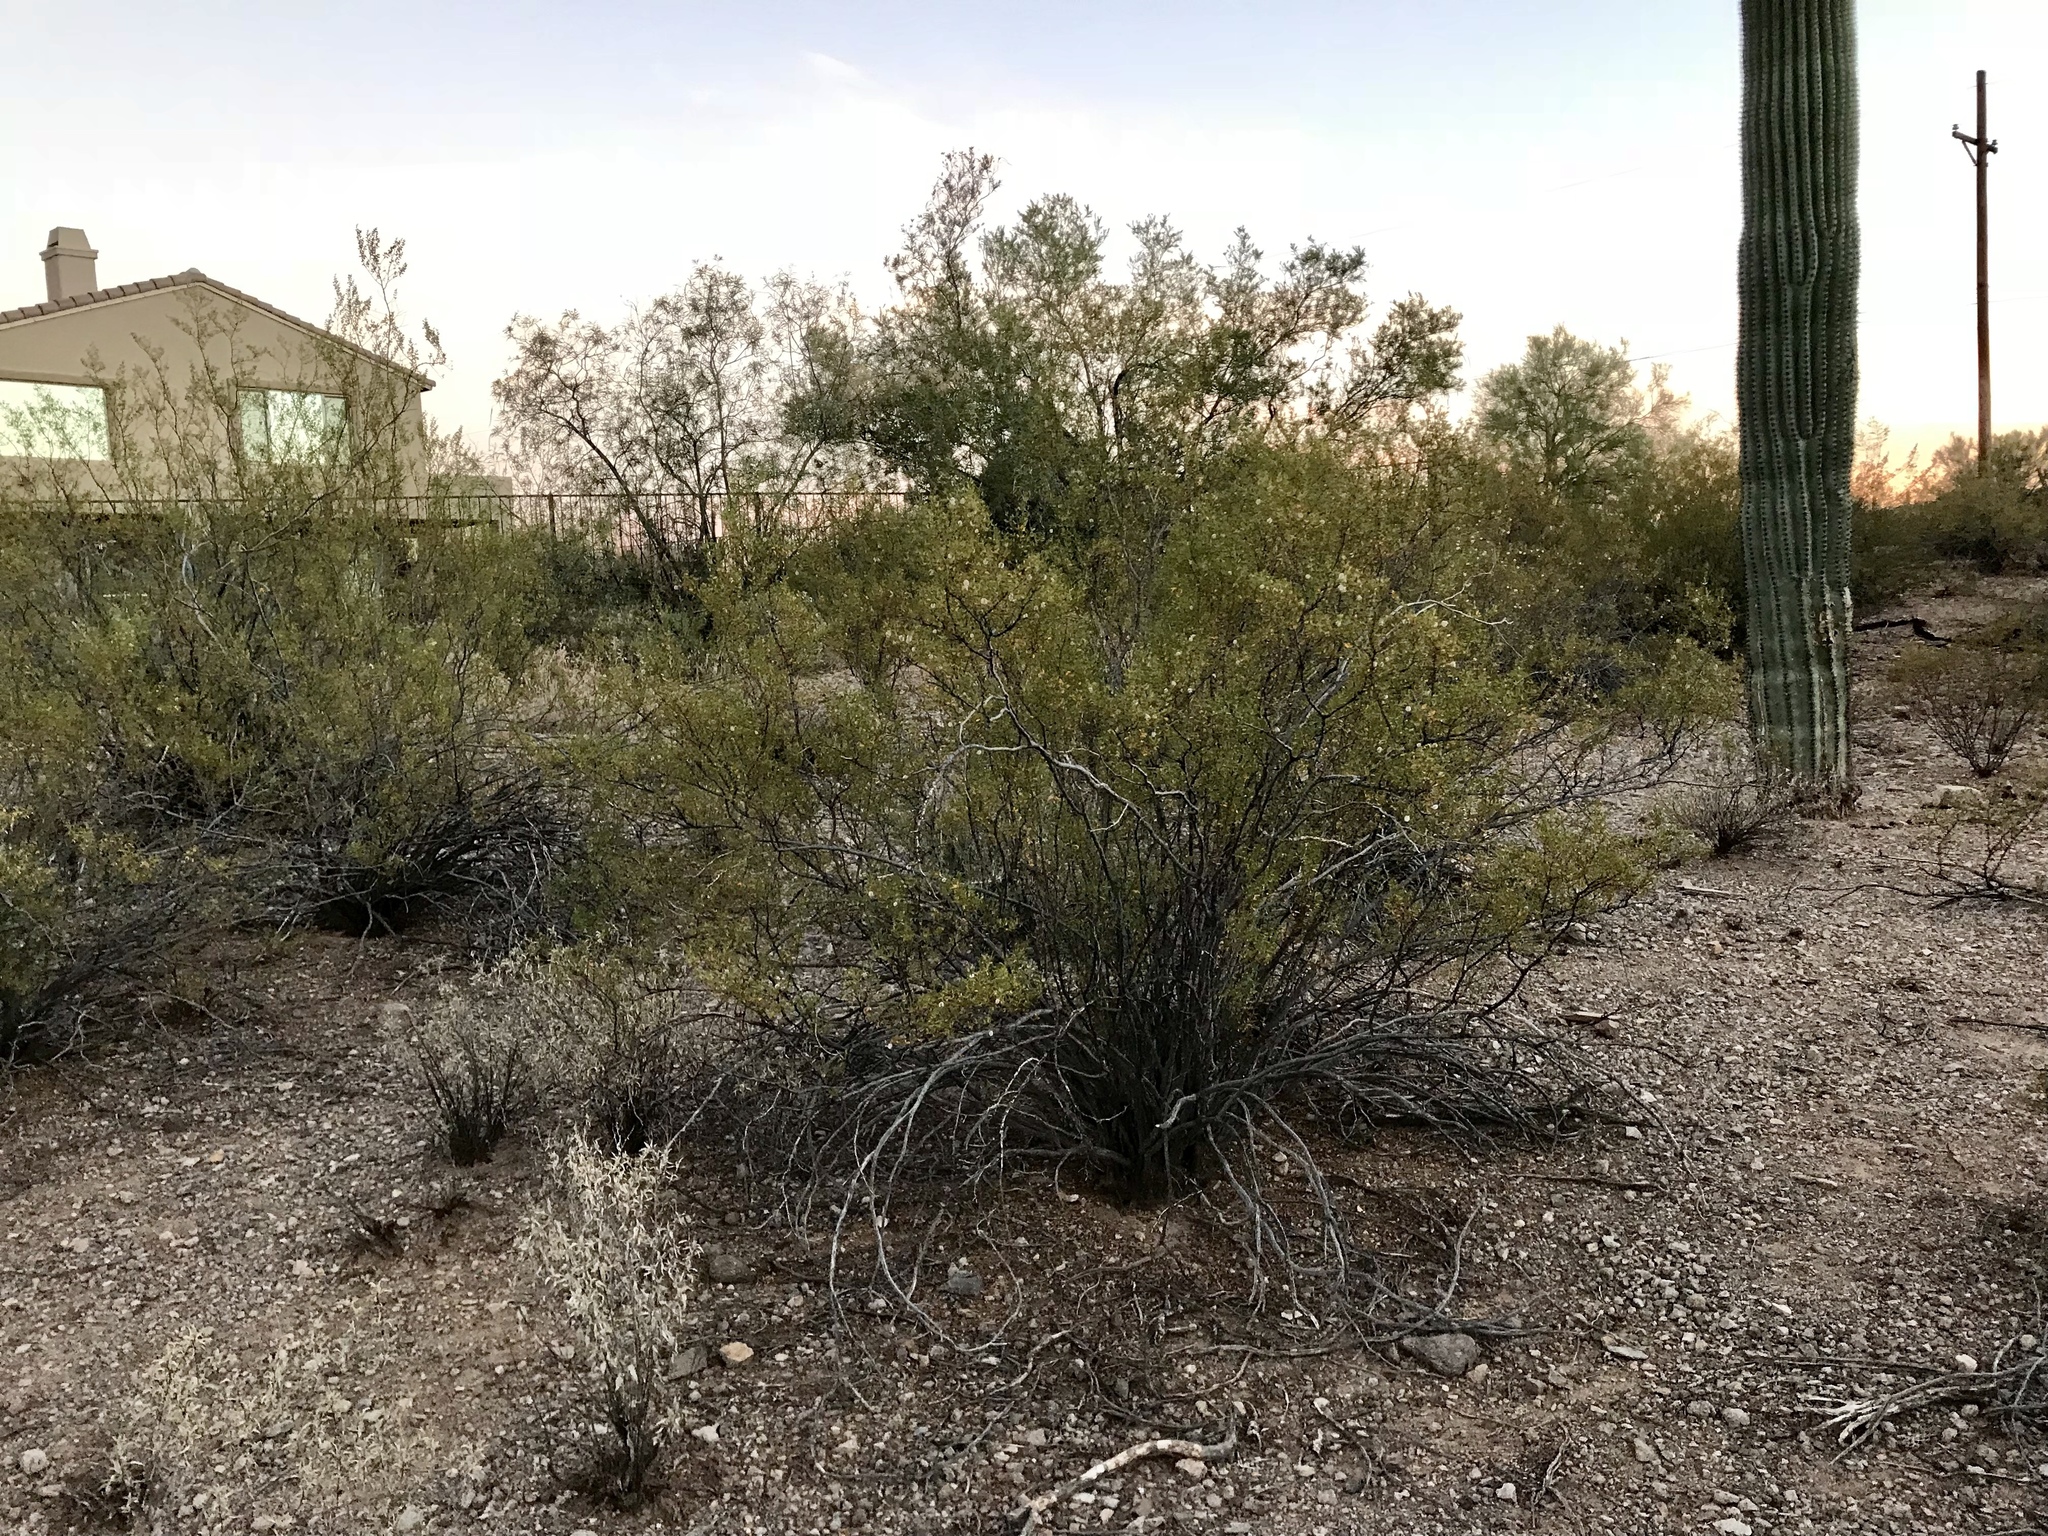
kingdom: Plantae
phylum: Tracheophyta
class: Magnoliopsida
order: Zygophyllales
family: Zygophyllaceae
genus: Larrea
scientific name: Larrea tridentata
